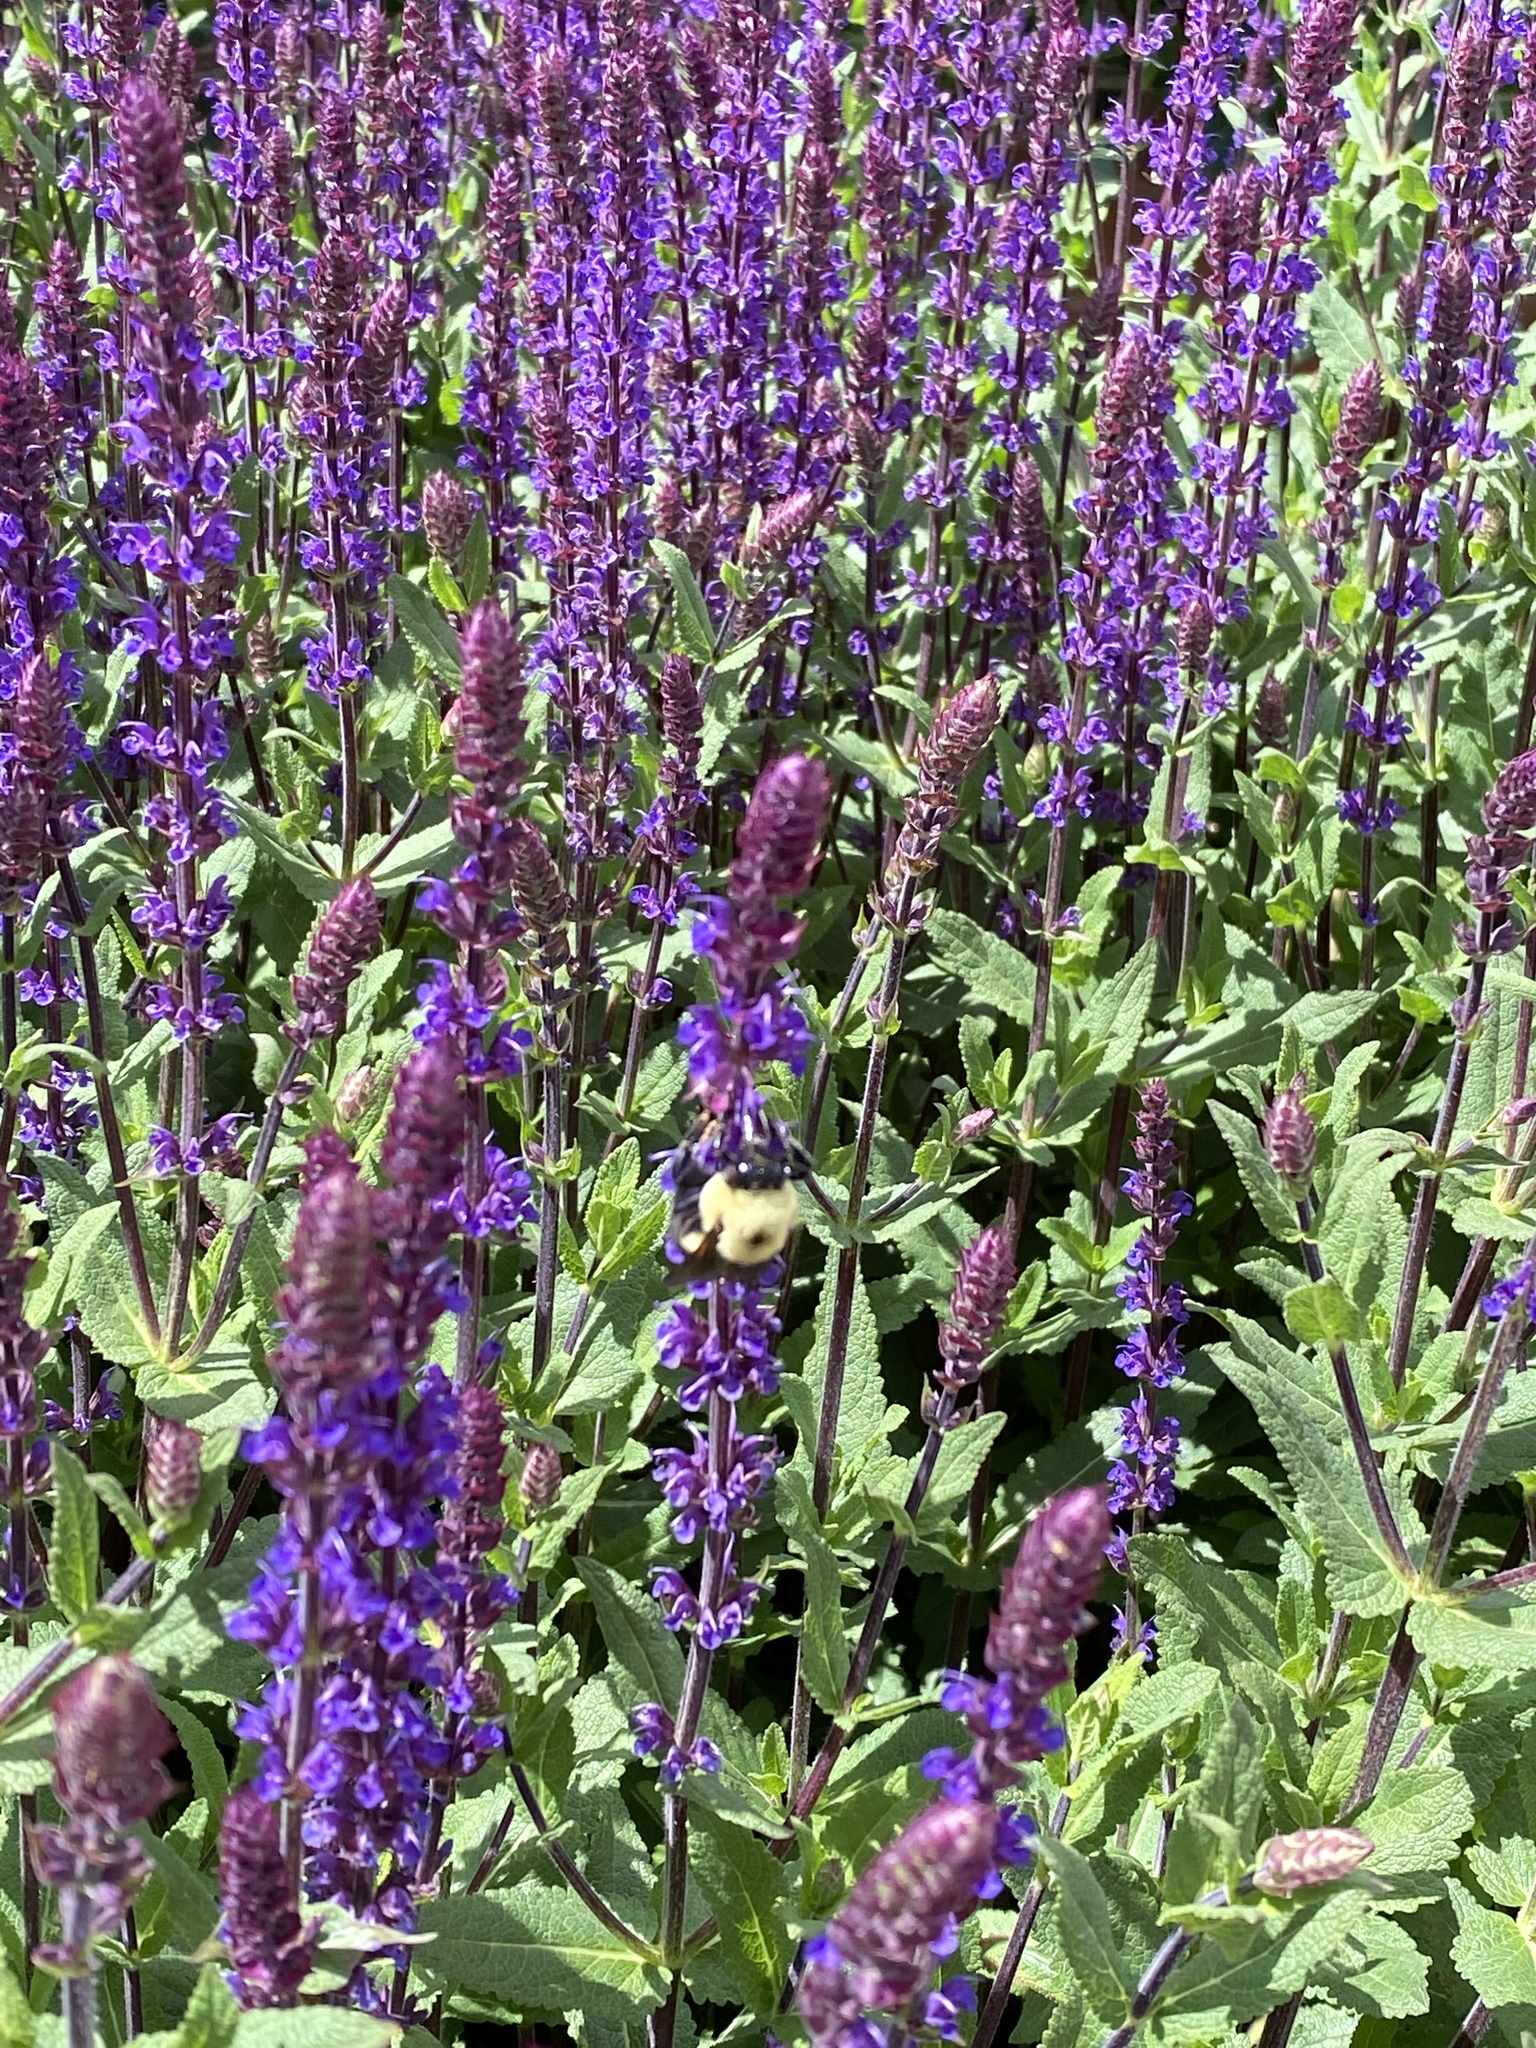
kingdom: Animalia
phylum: Arthropoda
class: Insecta
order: Hymenoptera
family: Apidae
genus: Bombus
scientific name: Bombus griseocollis
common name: Brown-belted bumble bee
